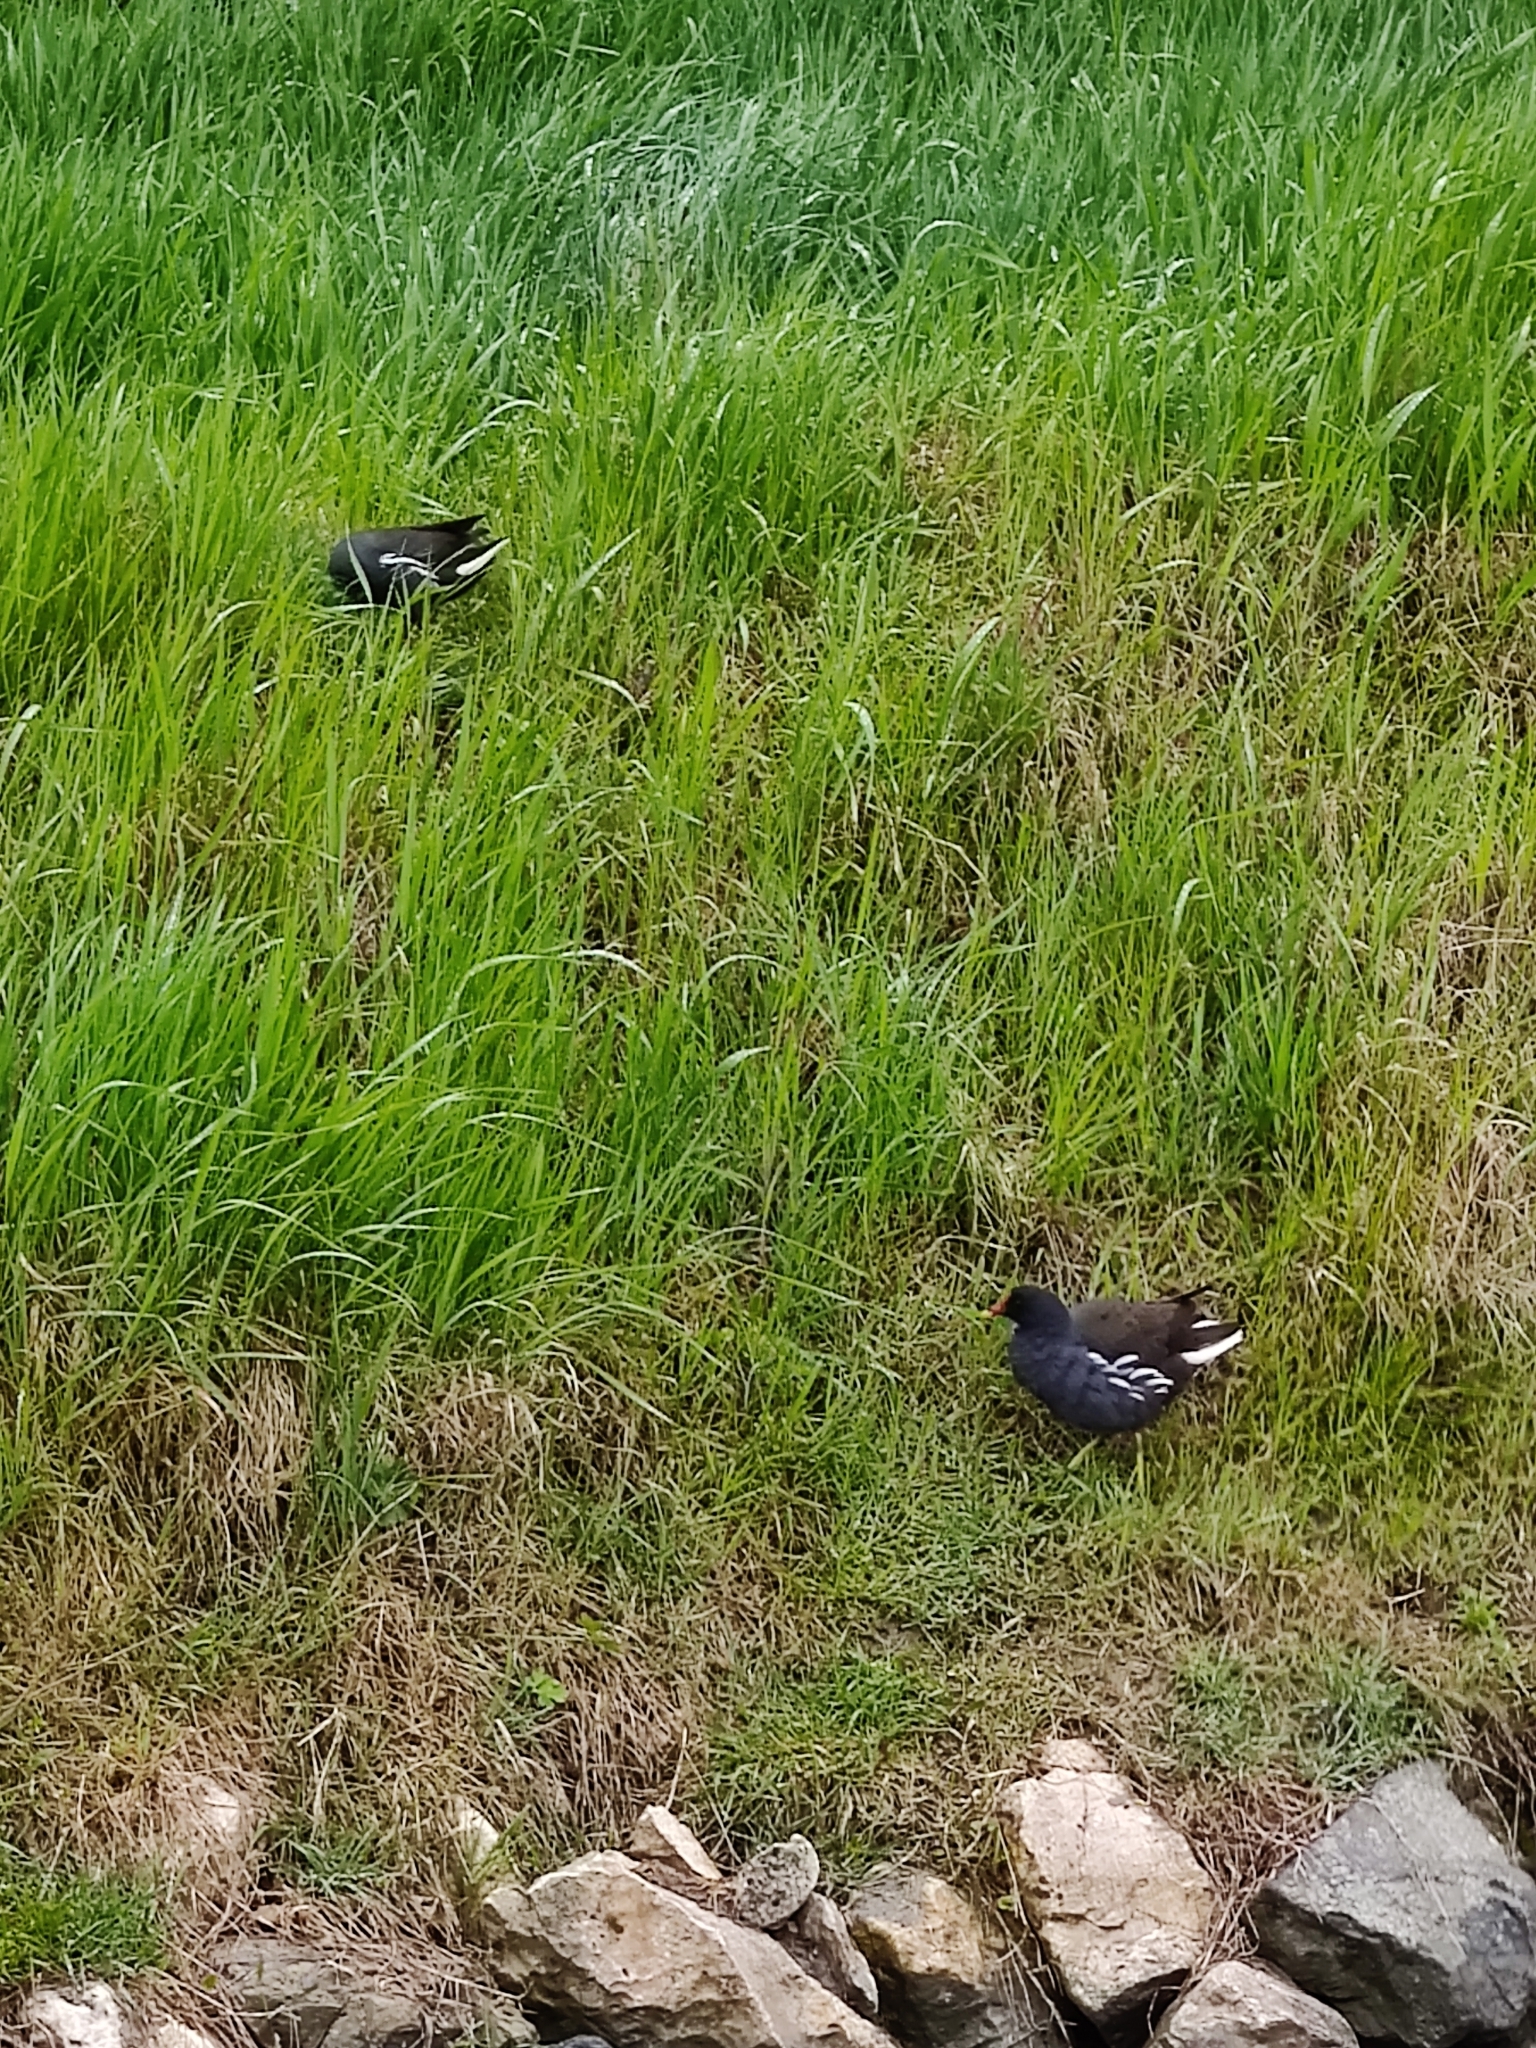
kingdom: Animalia
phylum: Chordata
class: Aves
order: Gruiformes
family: Rallidae
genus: Gallinula
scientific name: Gallinula chloropus
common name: Common moorhen
